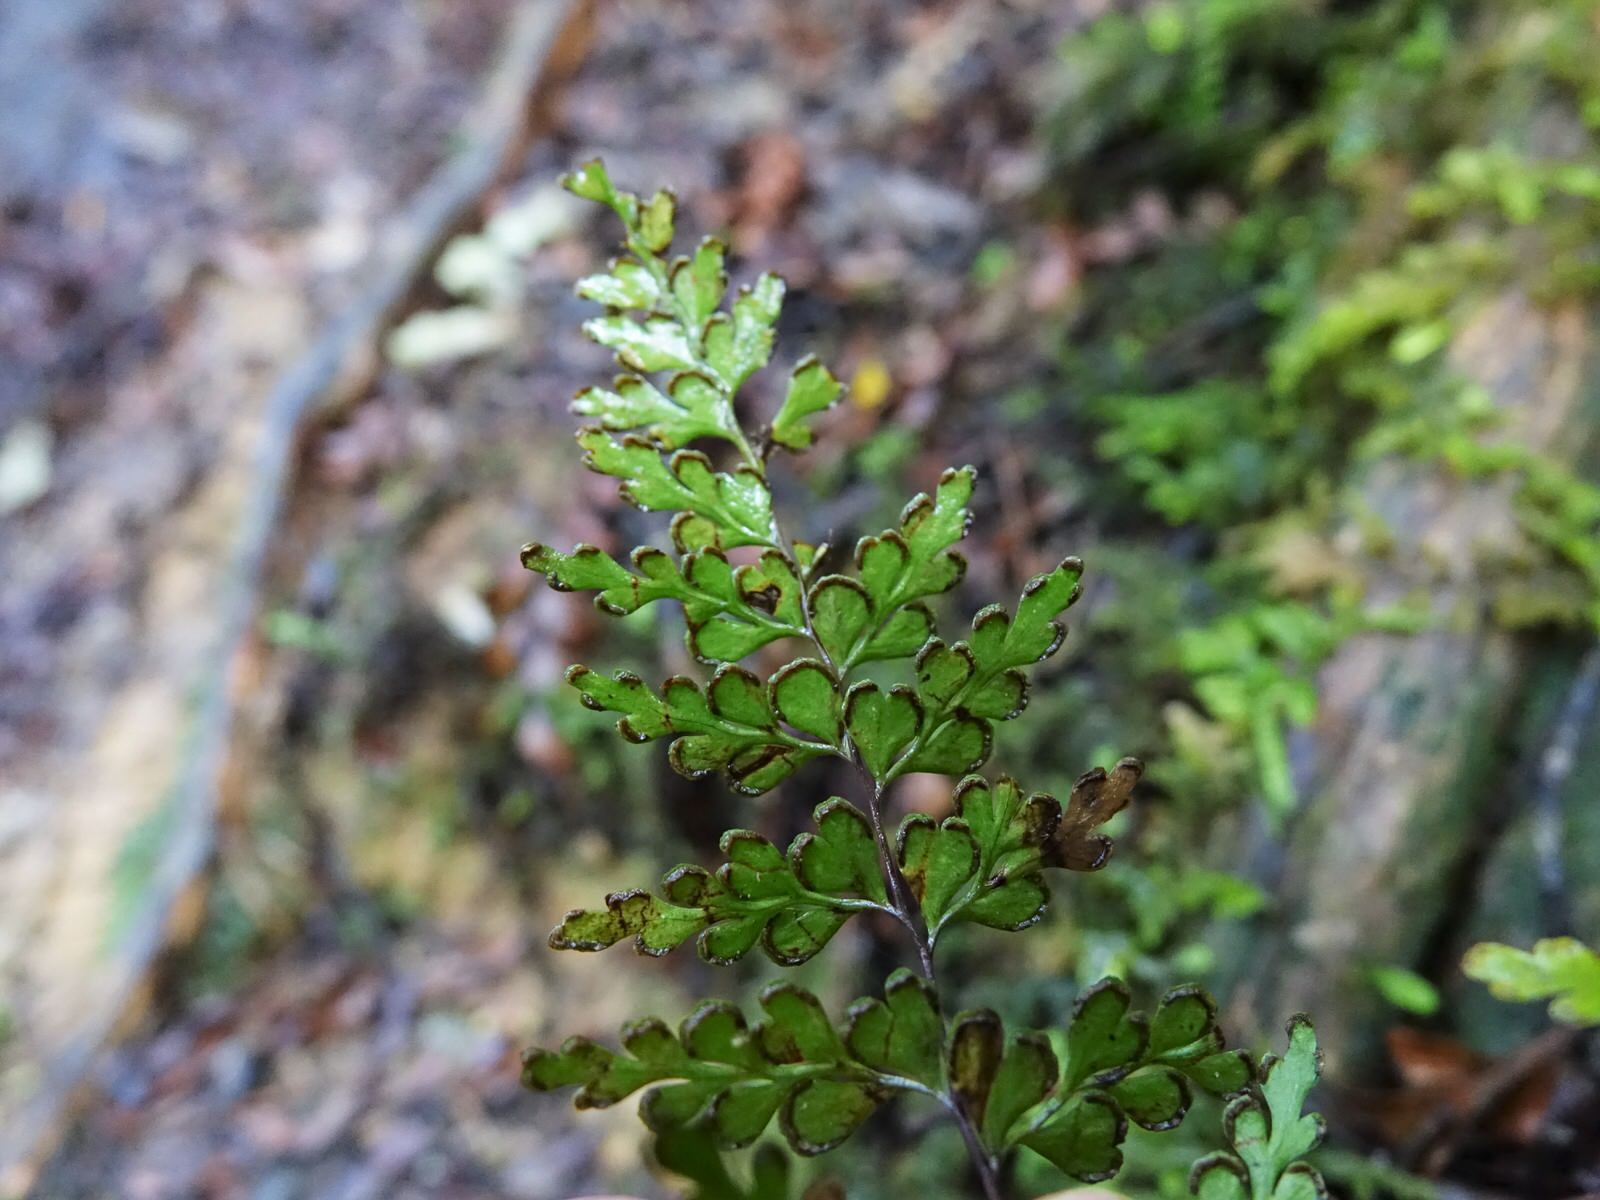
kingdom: Plantae
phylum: Tracheophyta
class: Polypodiopsida
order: Polypodiales
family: Lindsaeaceae
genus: Lindsaea
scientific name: Lindsaea trichomanoides
